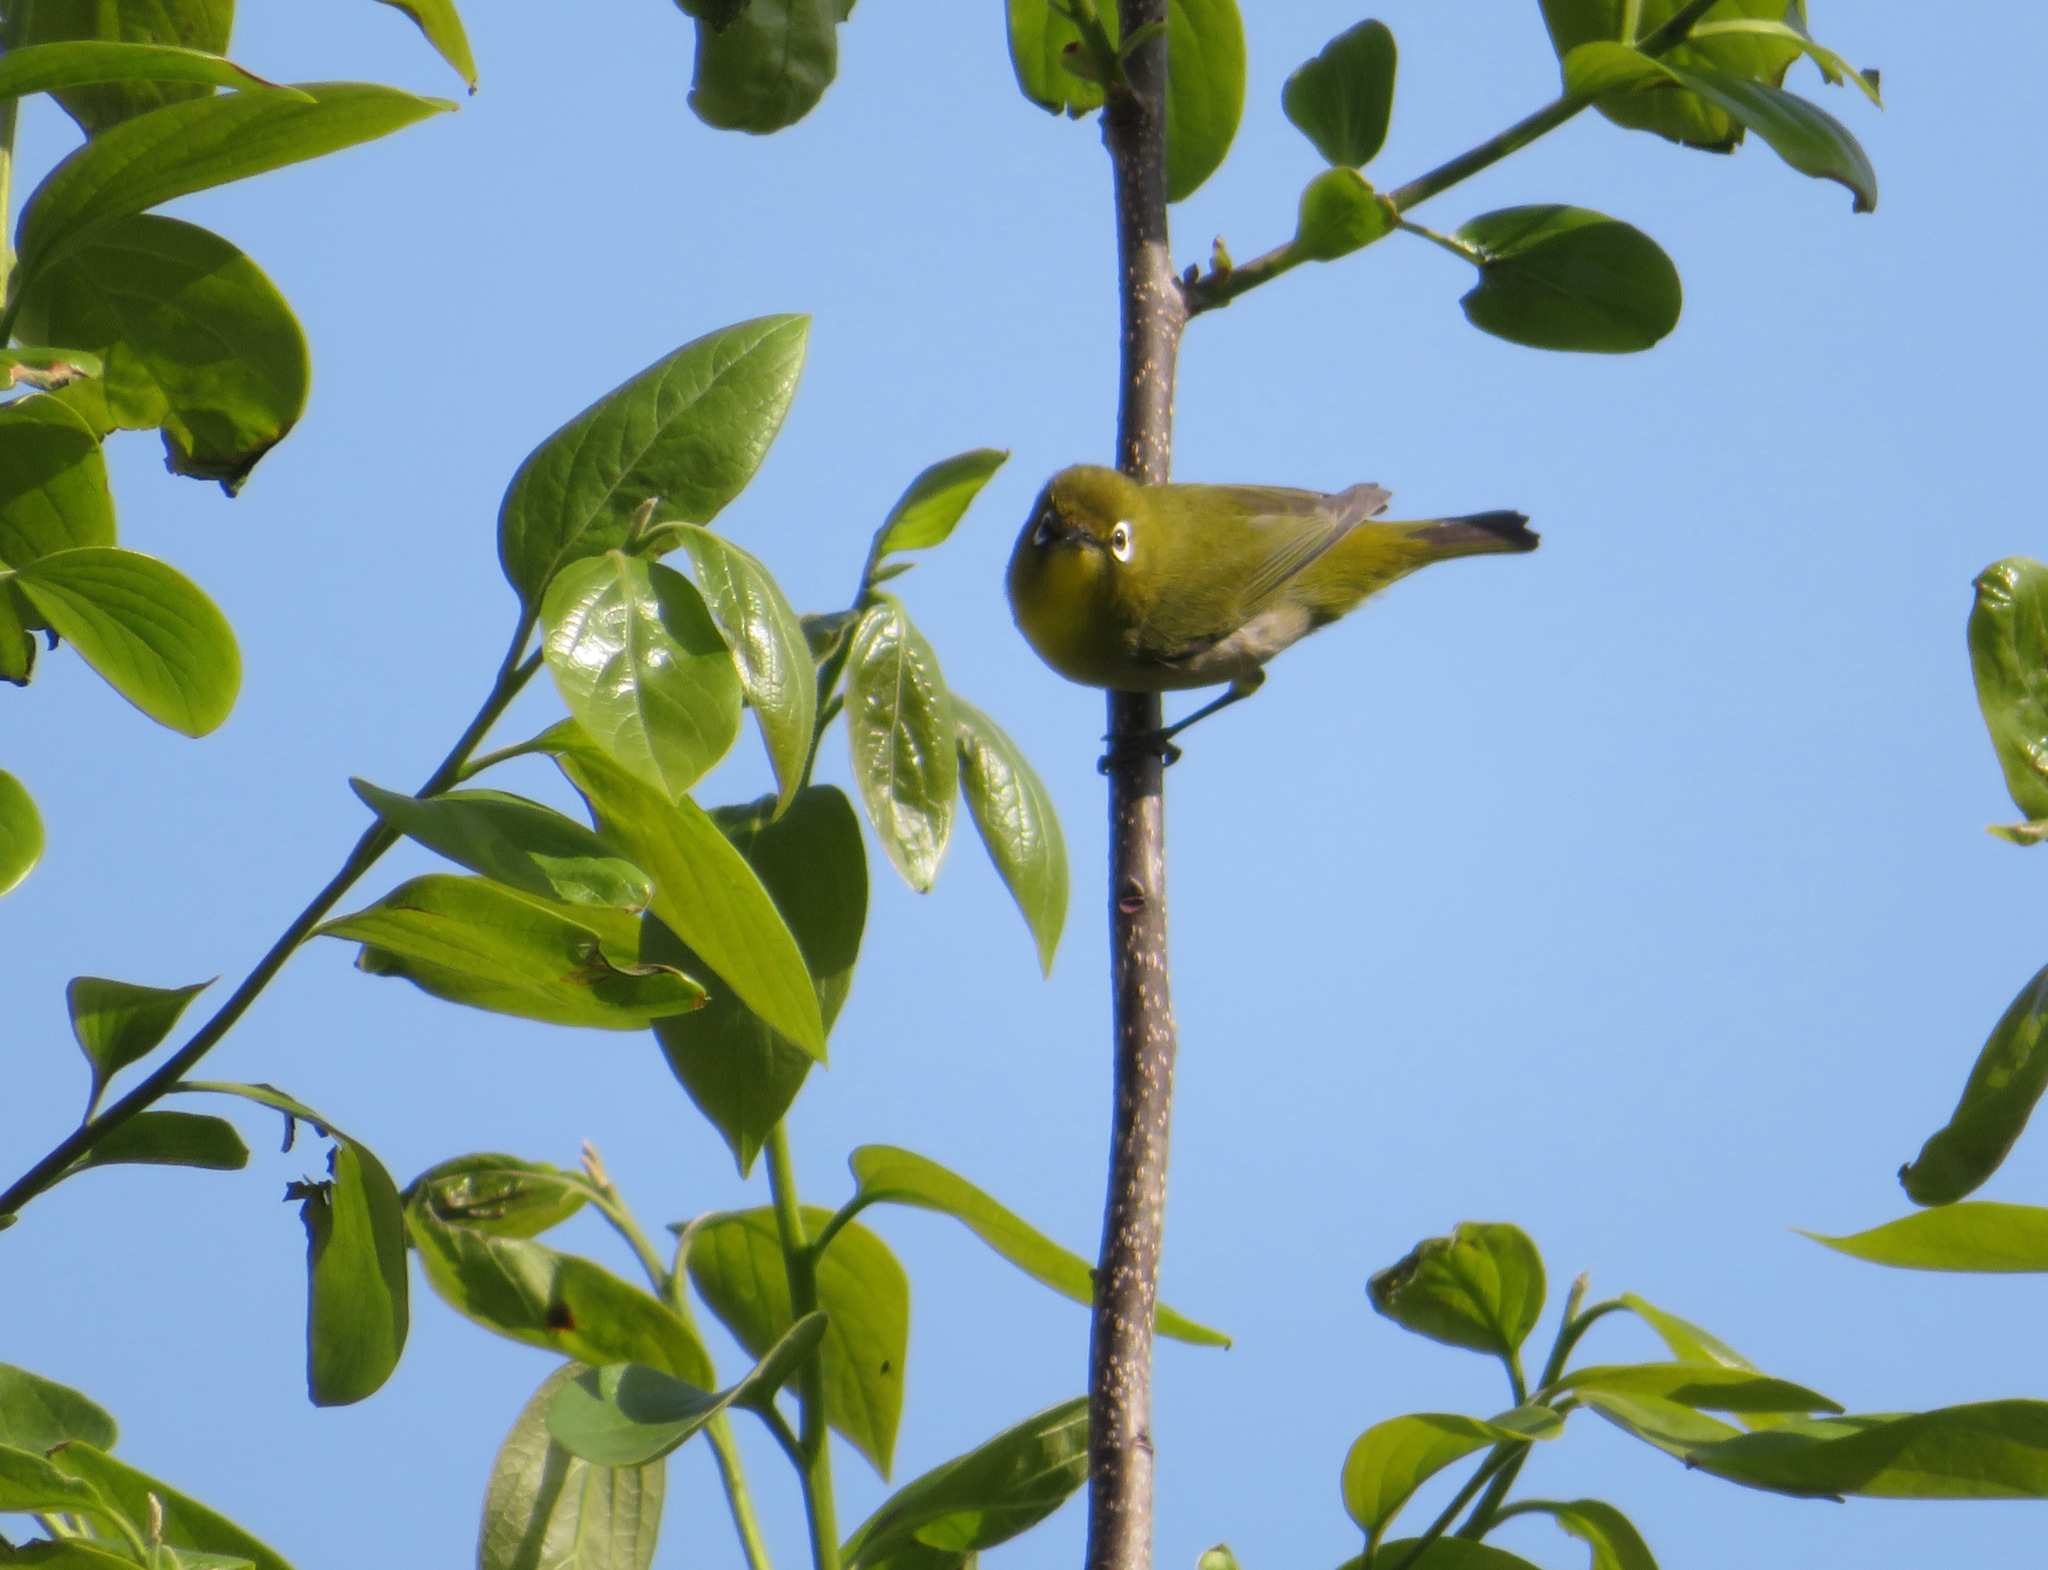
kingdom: Animalia
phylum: Chordata
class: Aves
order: Passeriformes
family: Zosteropidae
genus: Zosterops
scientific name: Zosterops japonicus
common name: Japanese white-eye
